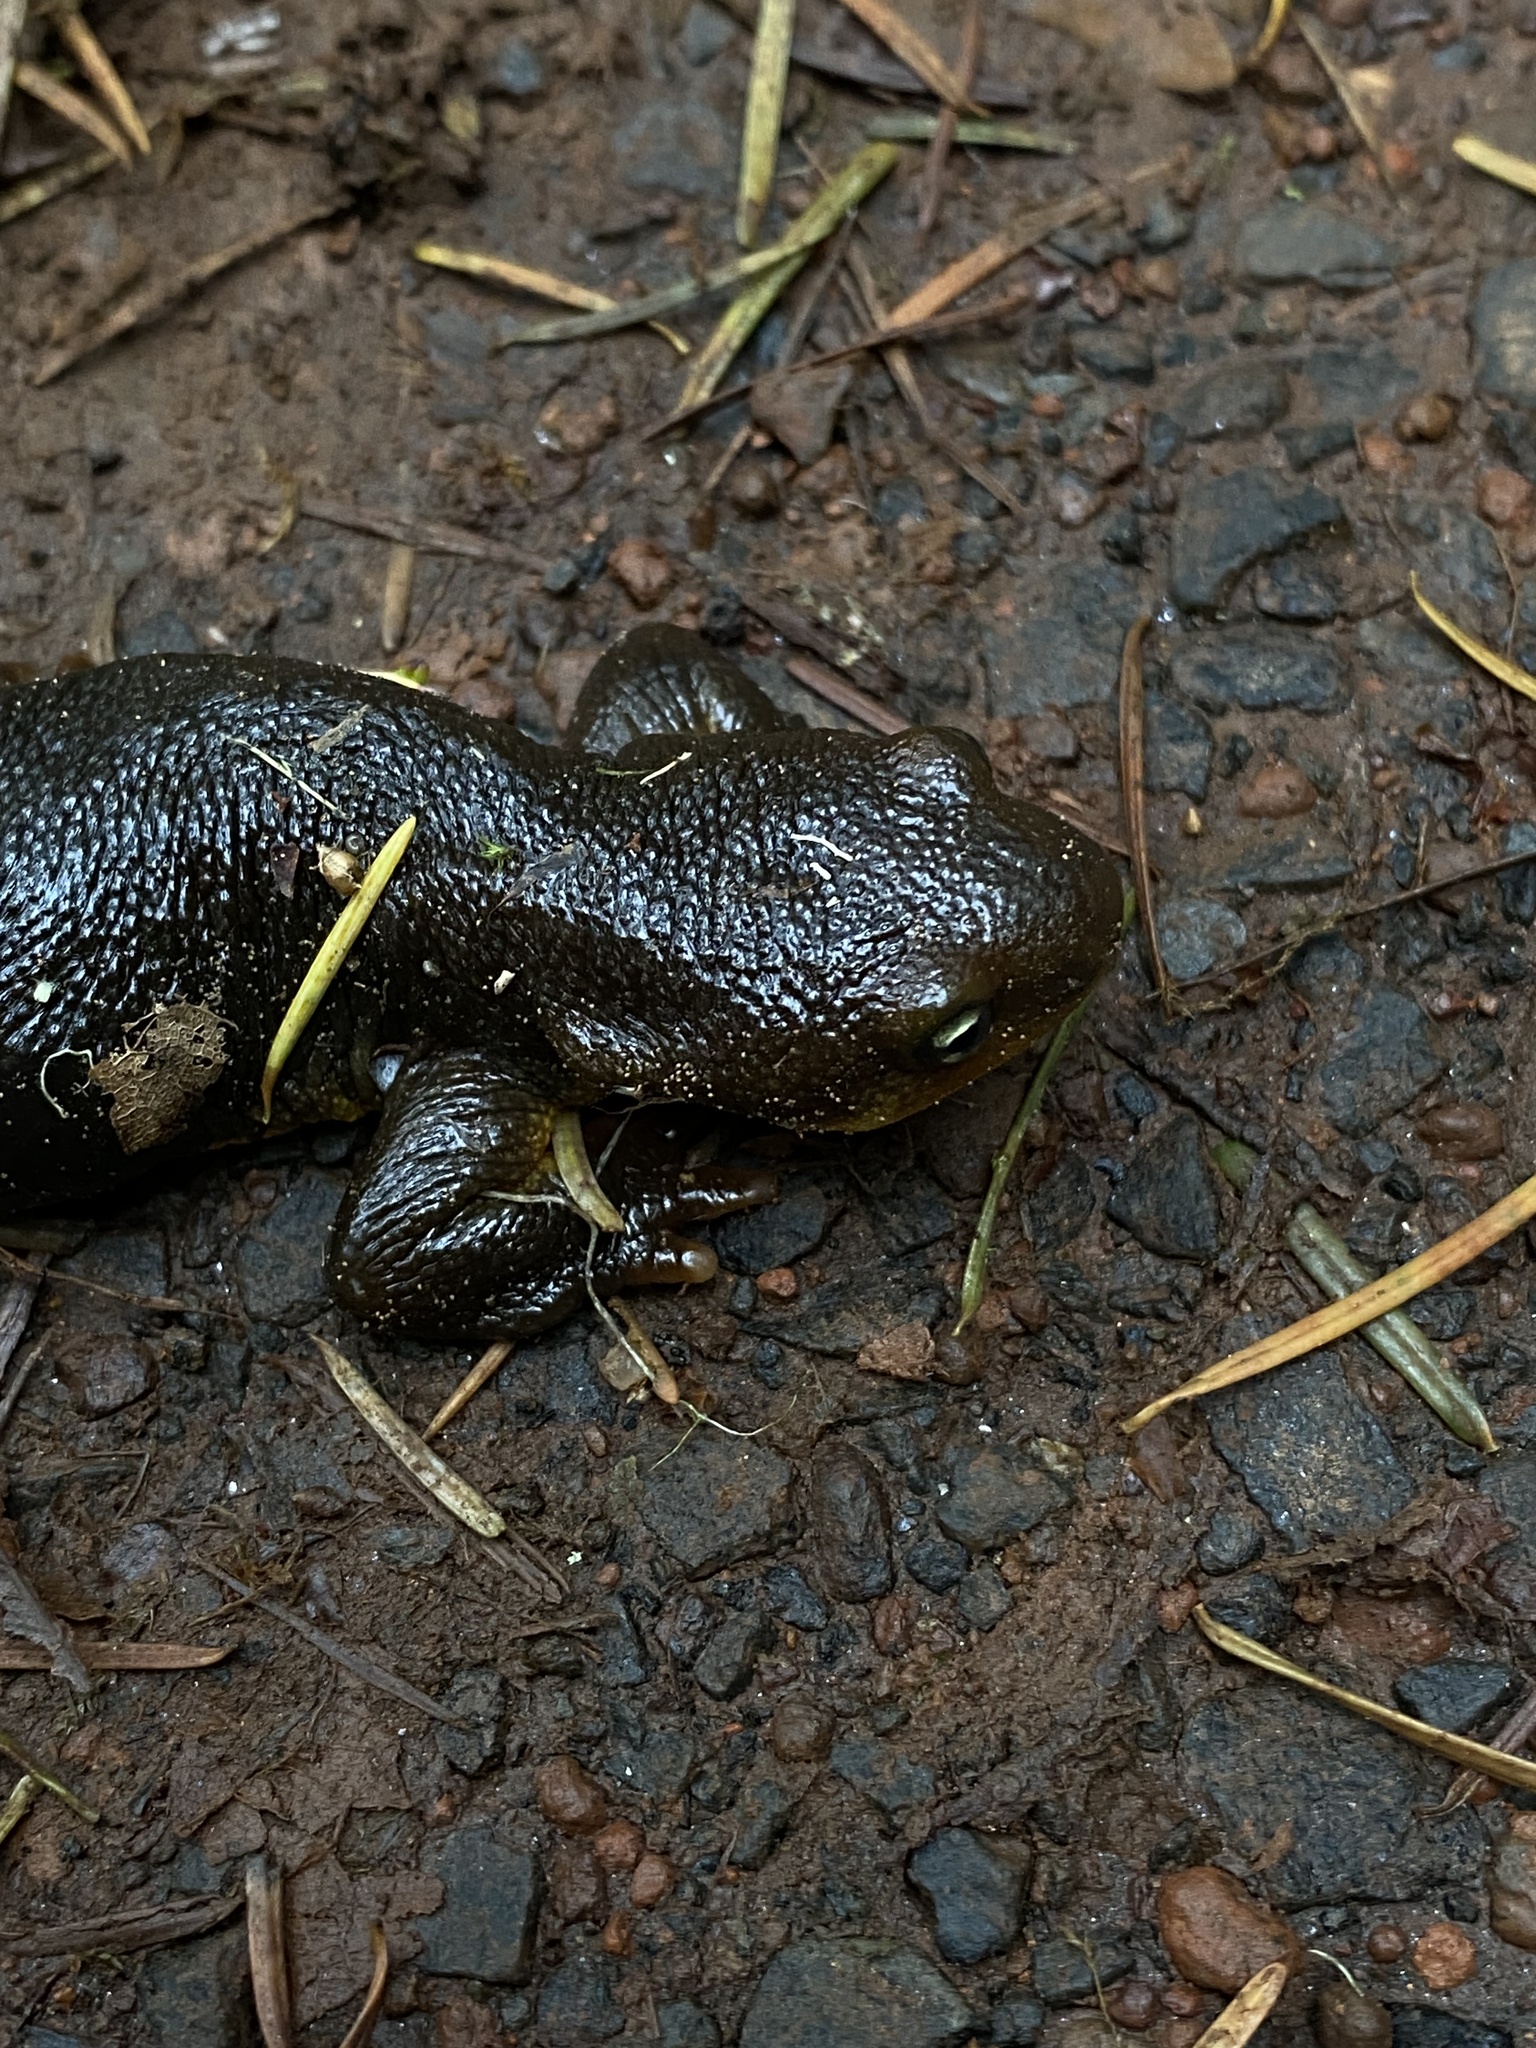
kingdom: Animalia
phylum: Chordata
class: Amphibia
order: Caudata
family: Salamandridae
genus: Taricha
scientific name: Taricha granulosa
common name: Roughskin newt
